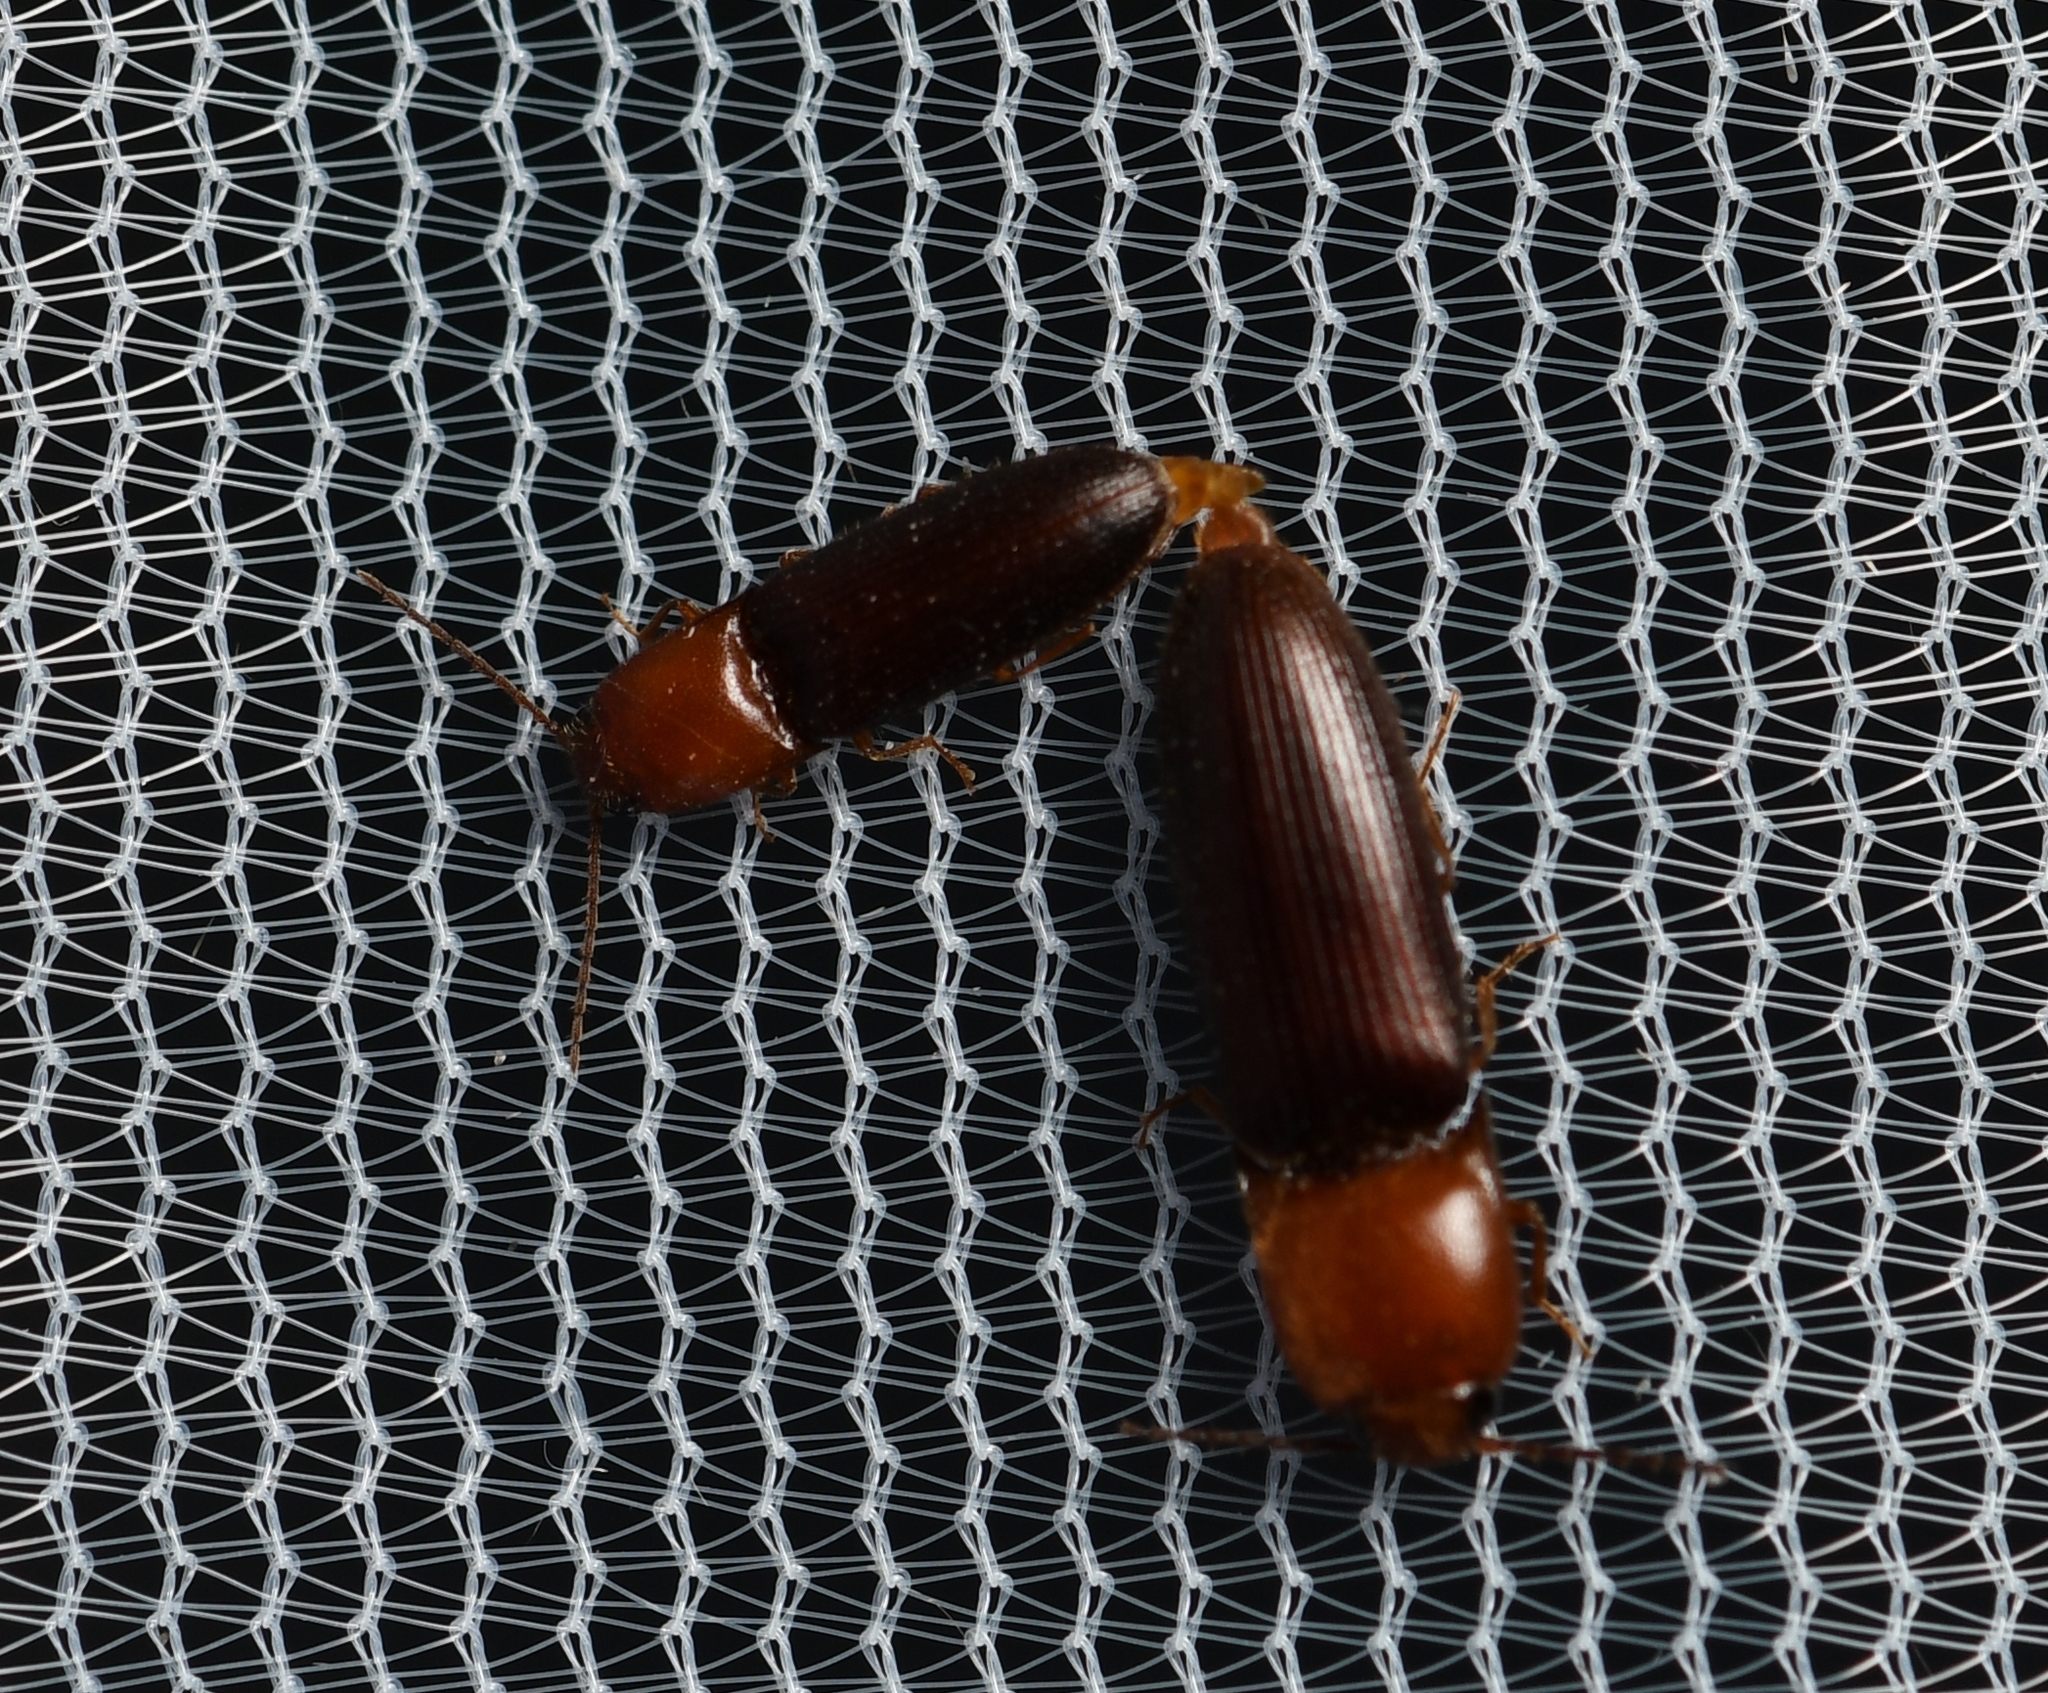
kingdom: Animalia
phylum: Arthropoda
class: Insecta
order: Coleoptera
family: Elateridae
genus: Anchastus
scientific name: Anchastus
